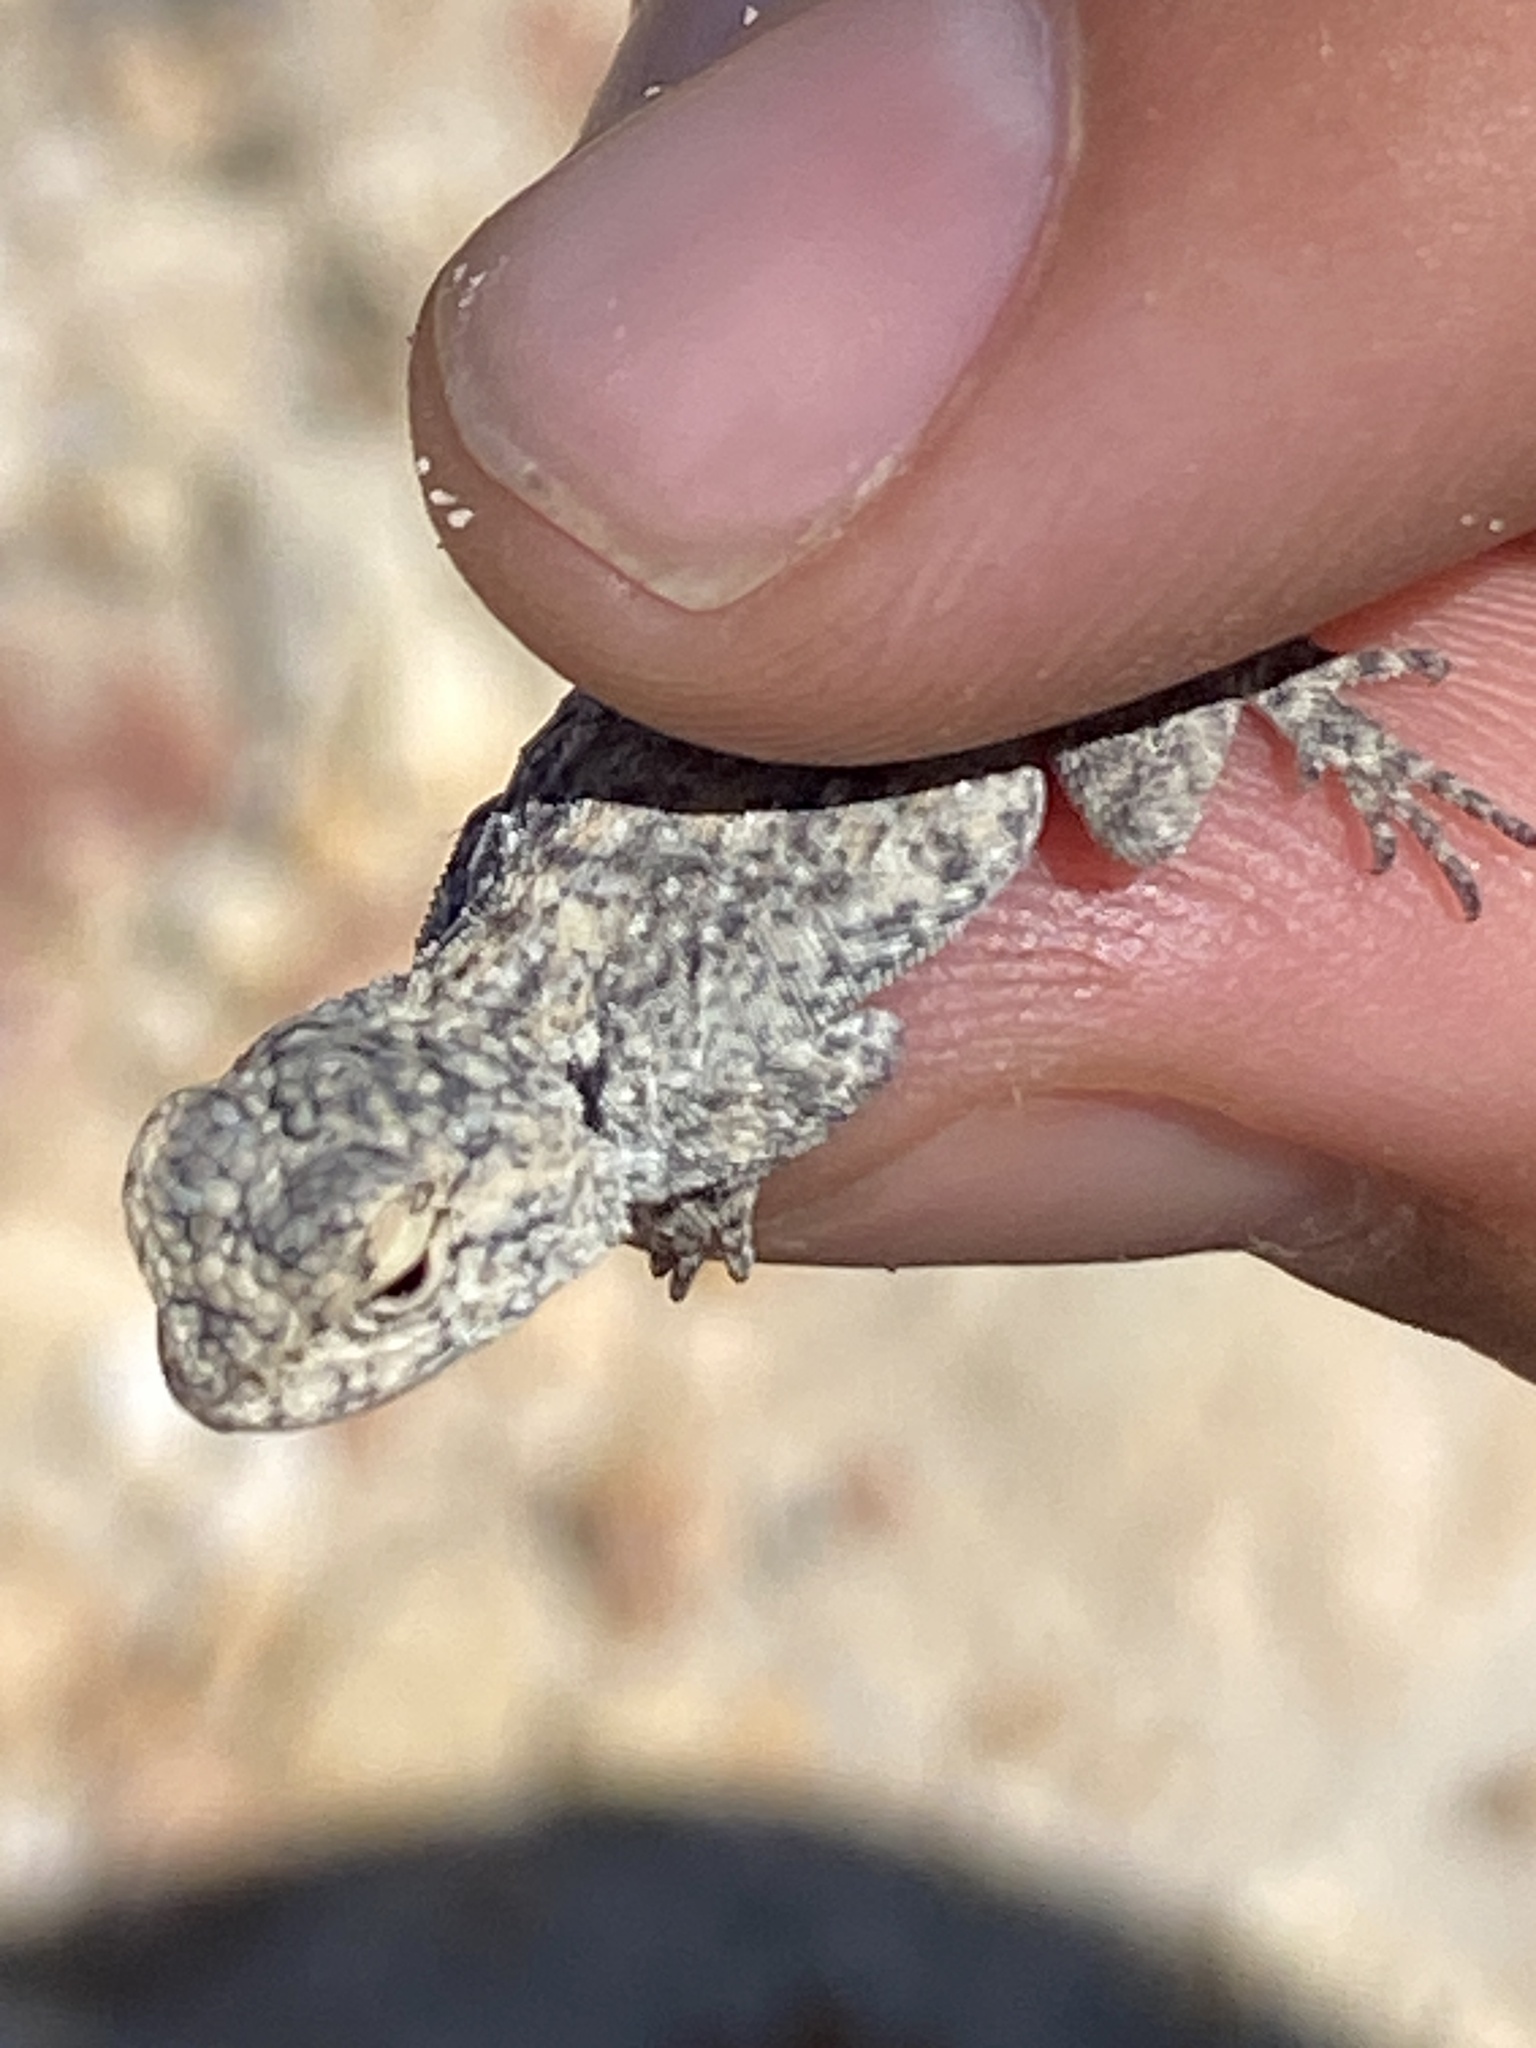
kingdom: Animalia
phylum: Chordata
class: Squamata
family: Agamidae
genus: Agama
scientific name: Agama atra
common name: Southern african rock agama
